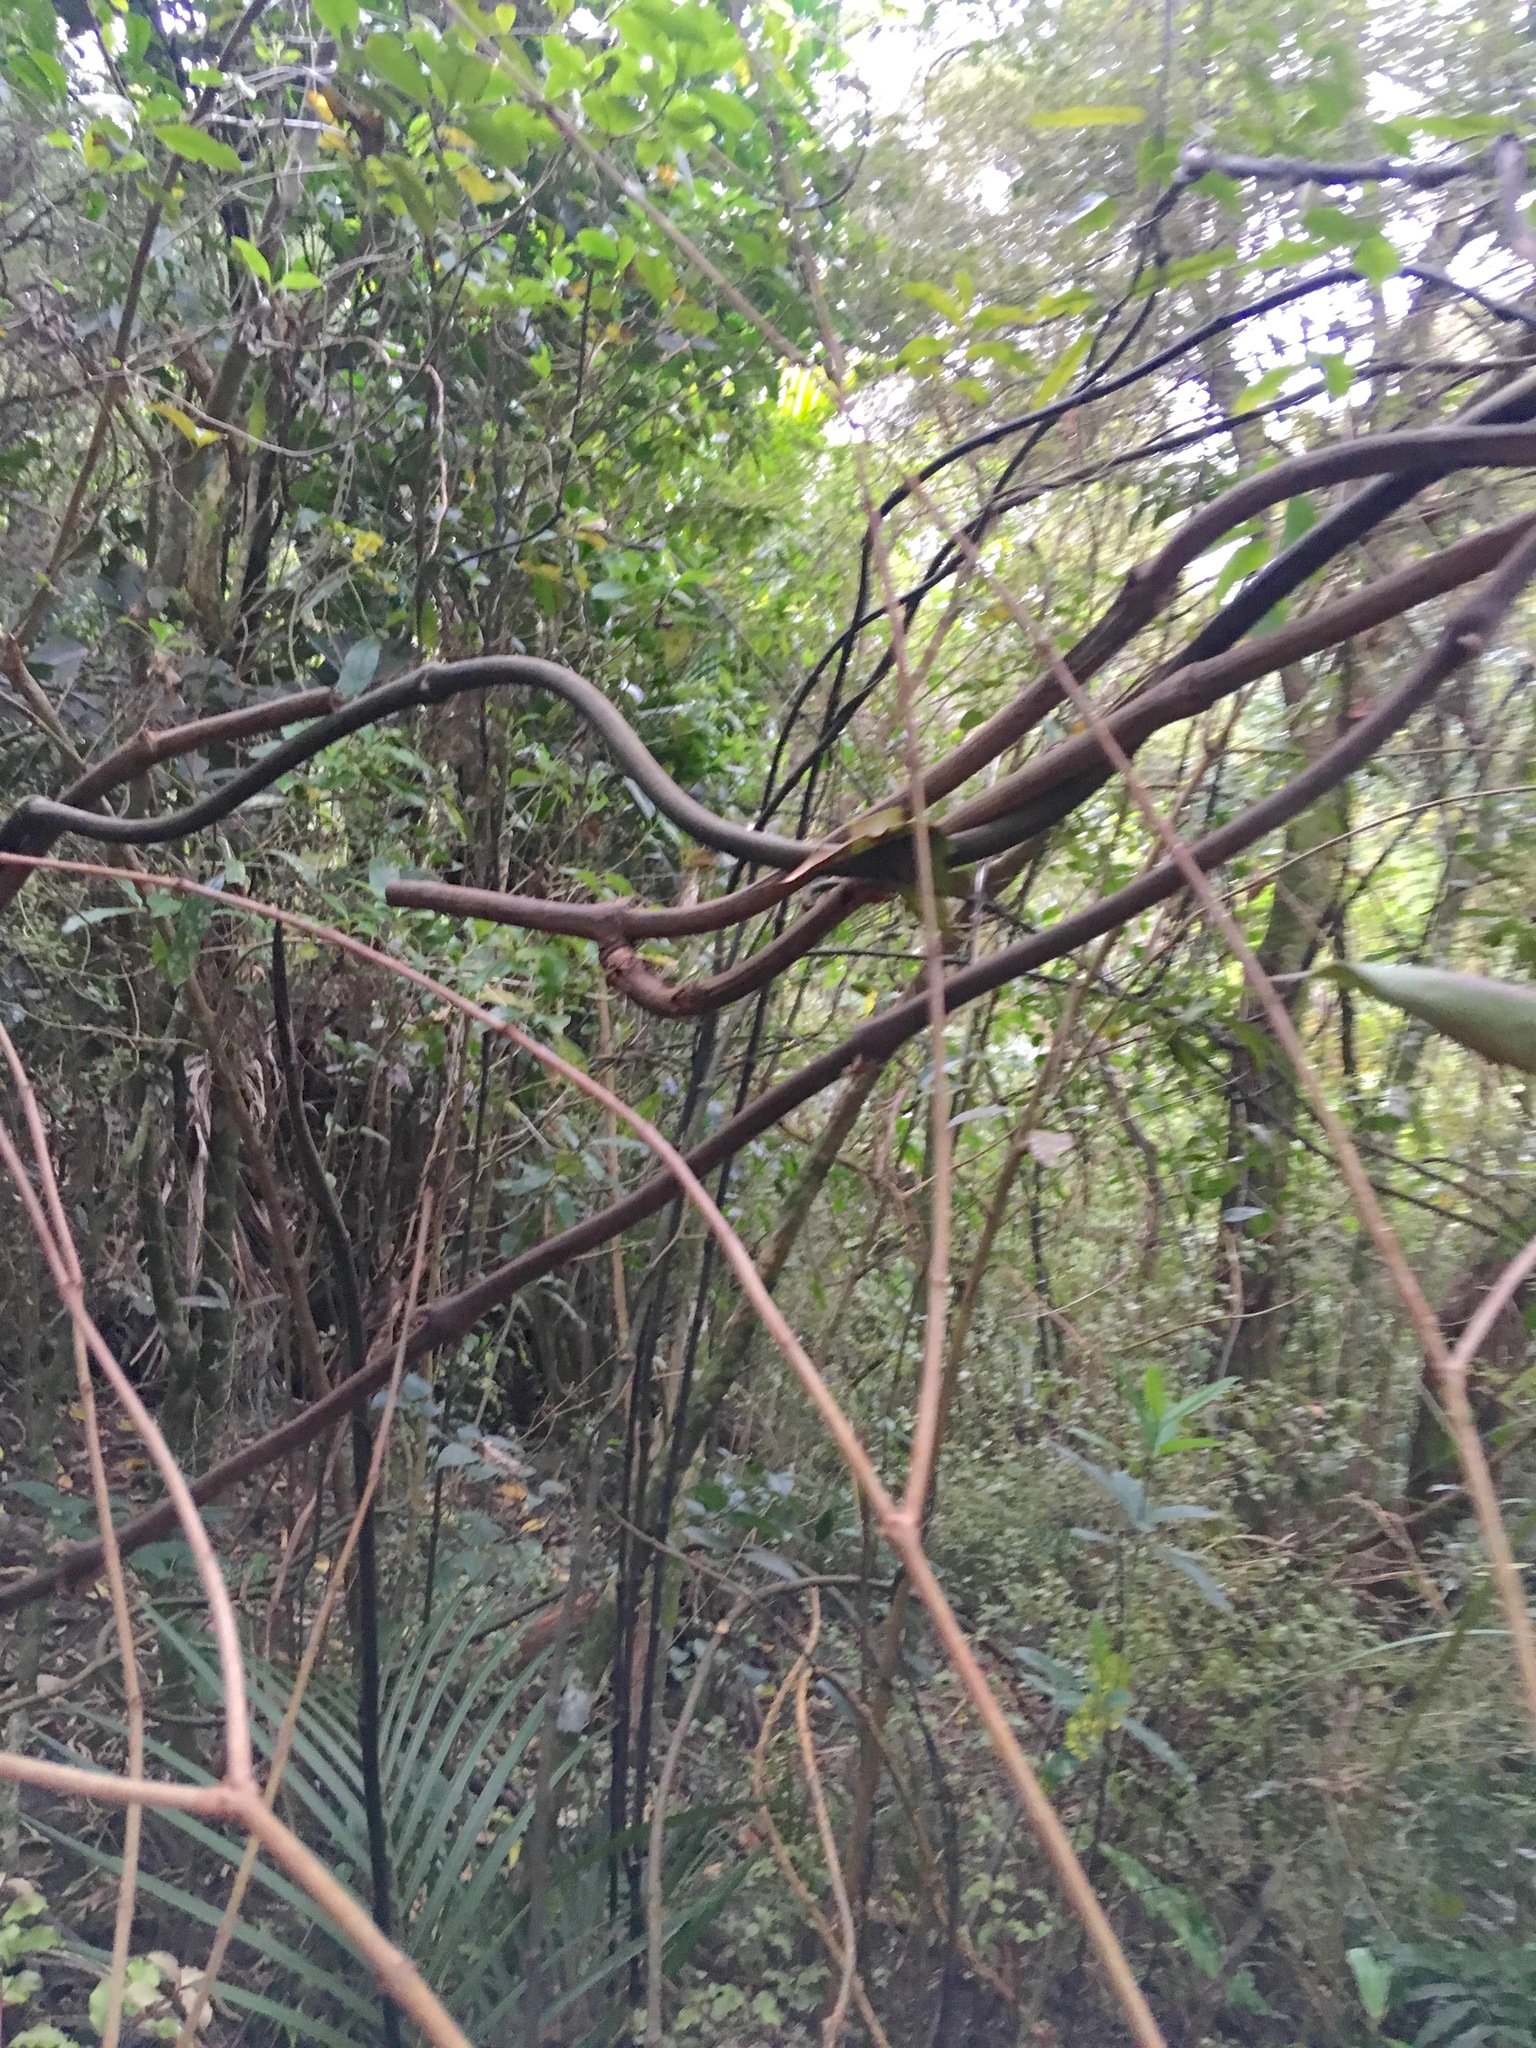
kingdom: Plantae
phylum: Tracheophyta
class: Liliopsida
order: Liliales
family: Ripogonaceae
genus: Ripogonum
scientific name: Ripogonum scandens
